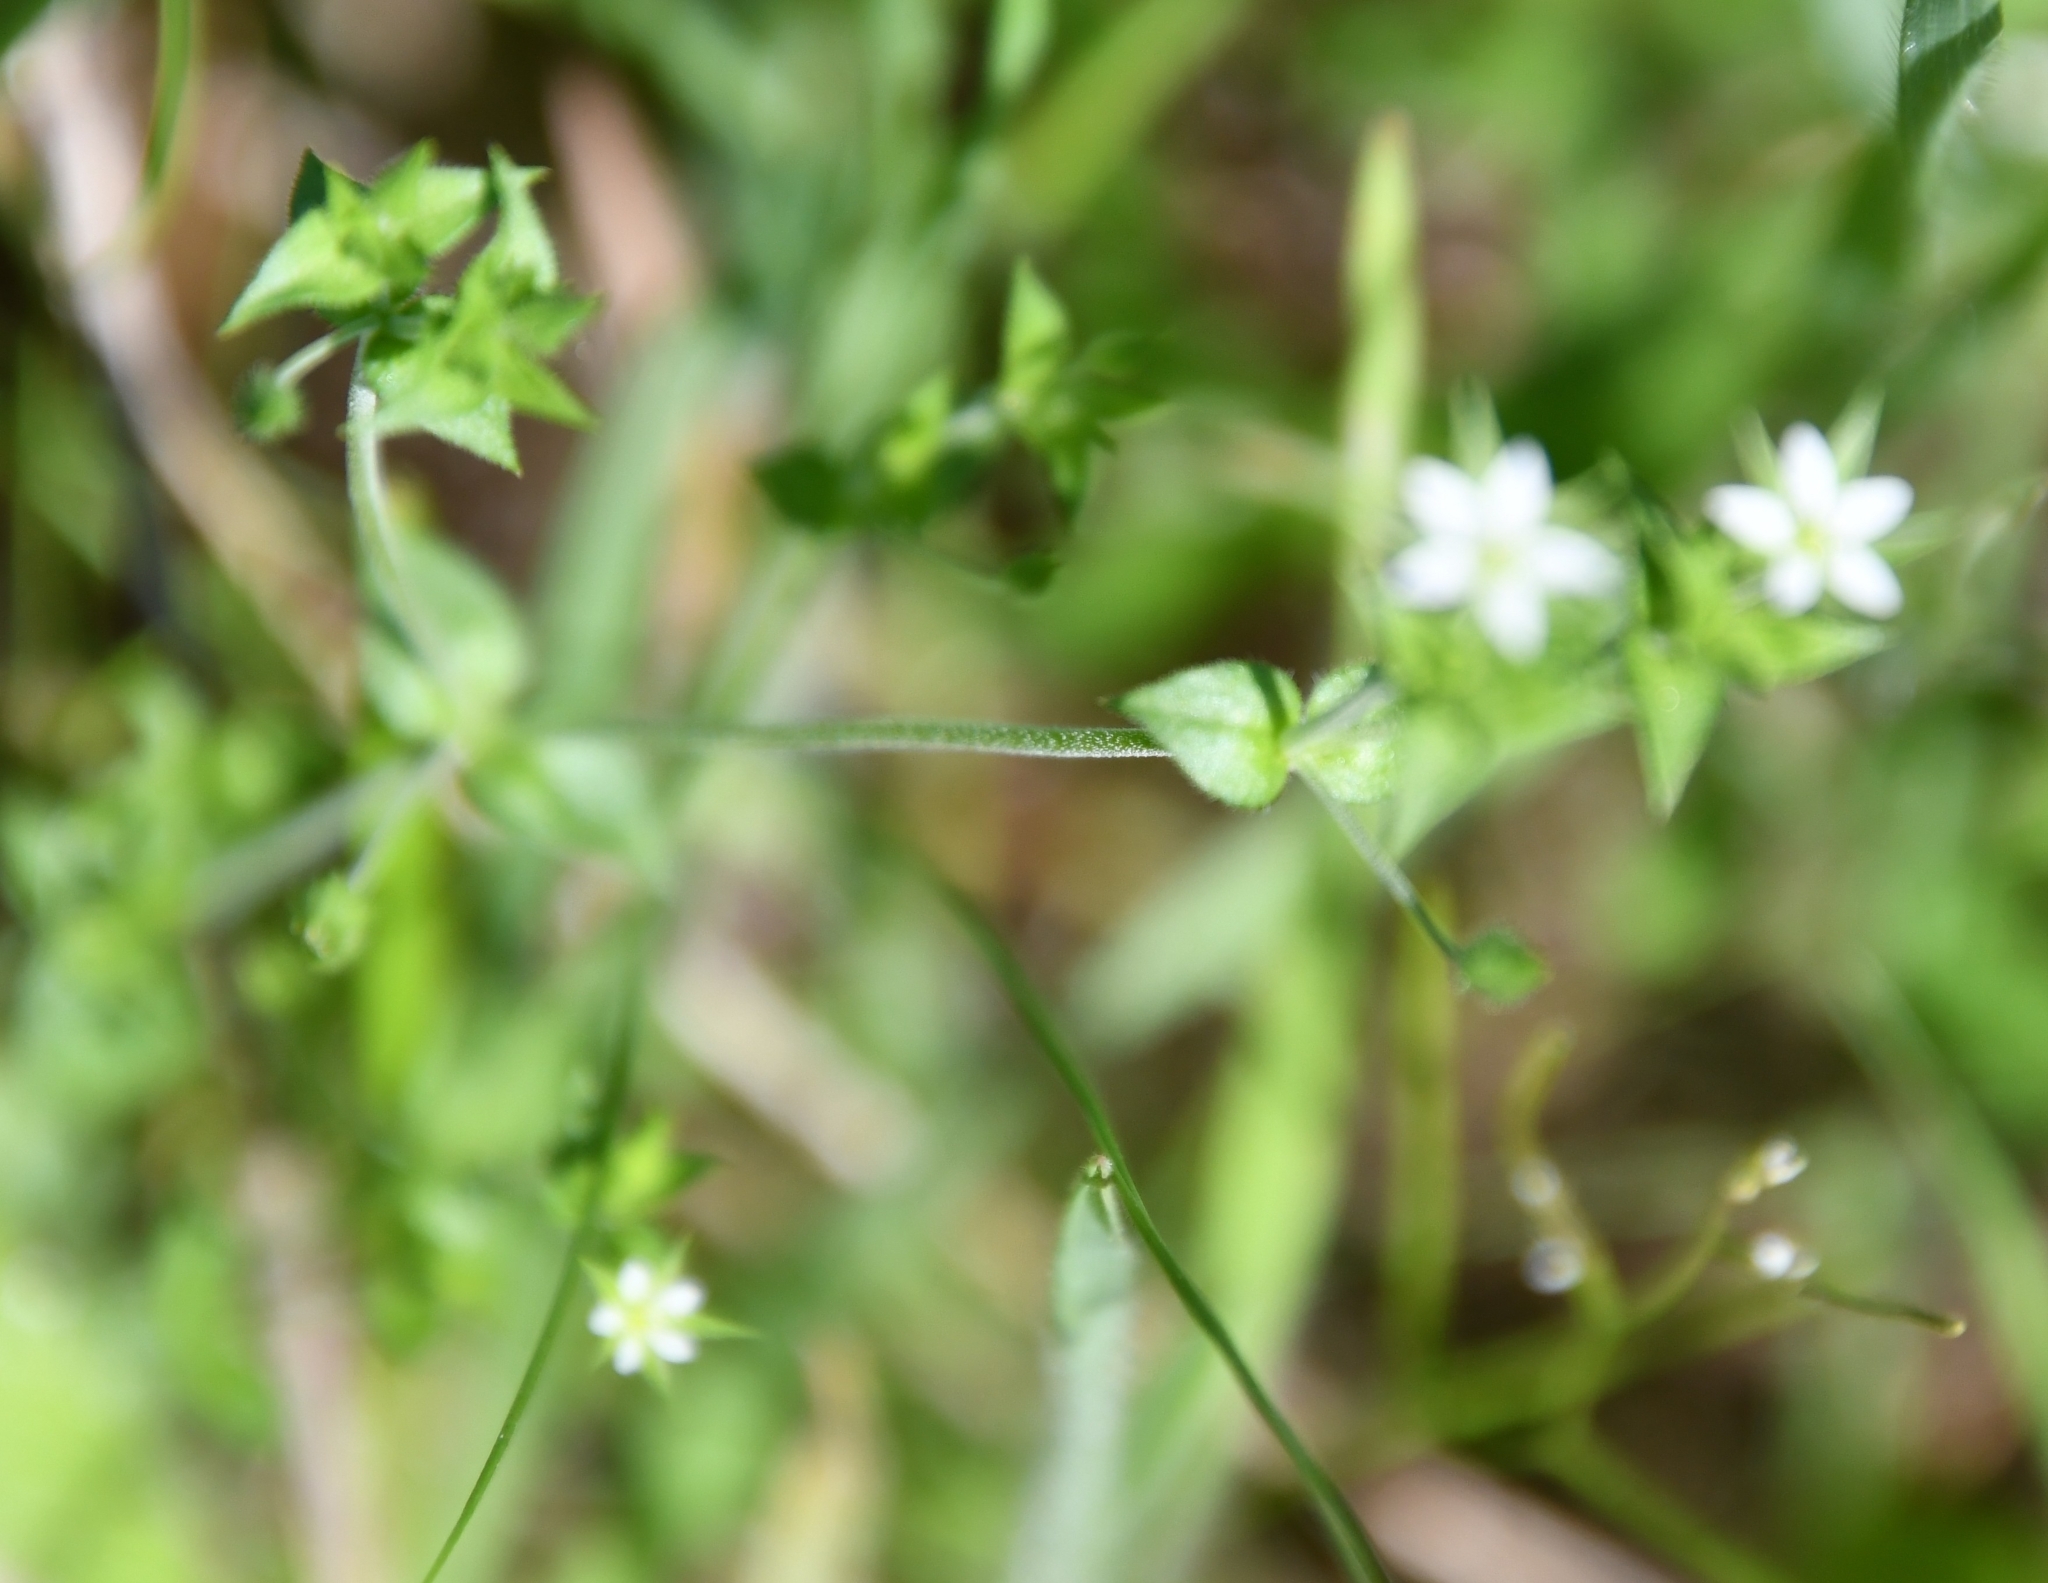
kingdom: Plantae
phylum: Tracheophyta
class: Magnoliopsida
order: Caryophyllales
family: Caryophyllaceae
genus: Arenaria
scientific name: Arenaria serpyllifolia
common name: Thyme-leaved sandwort
